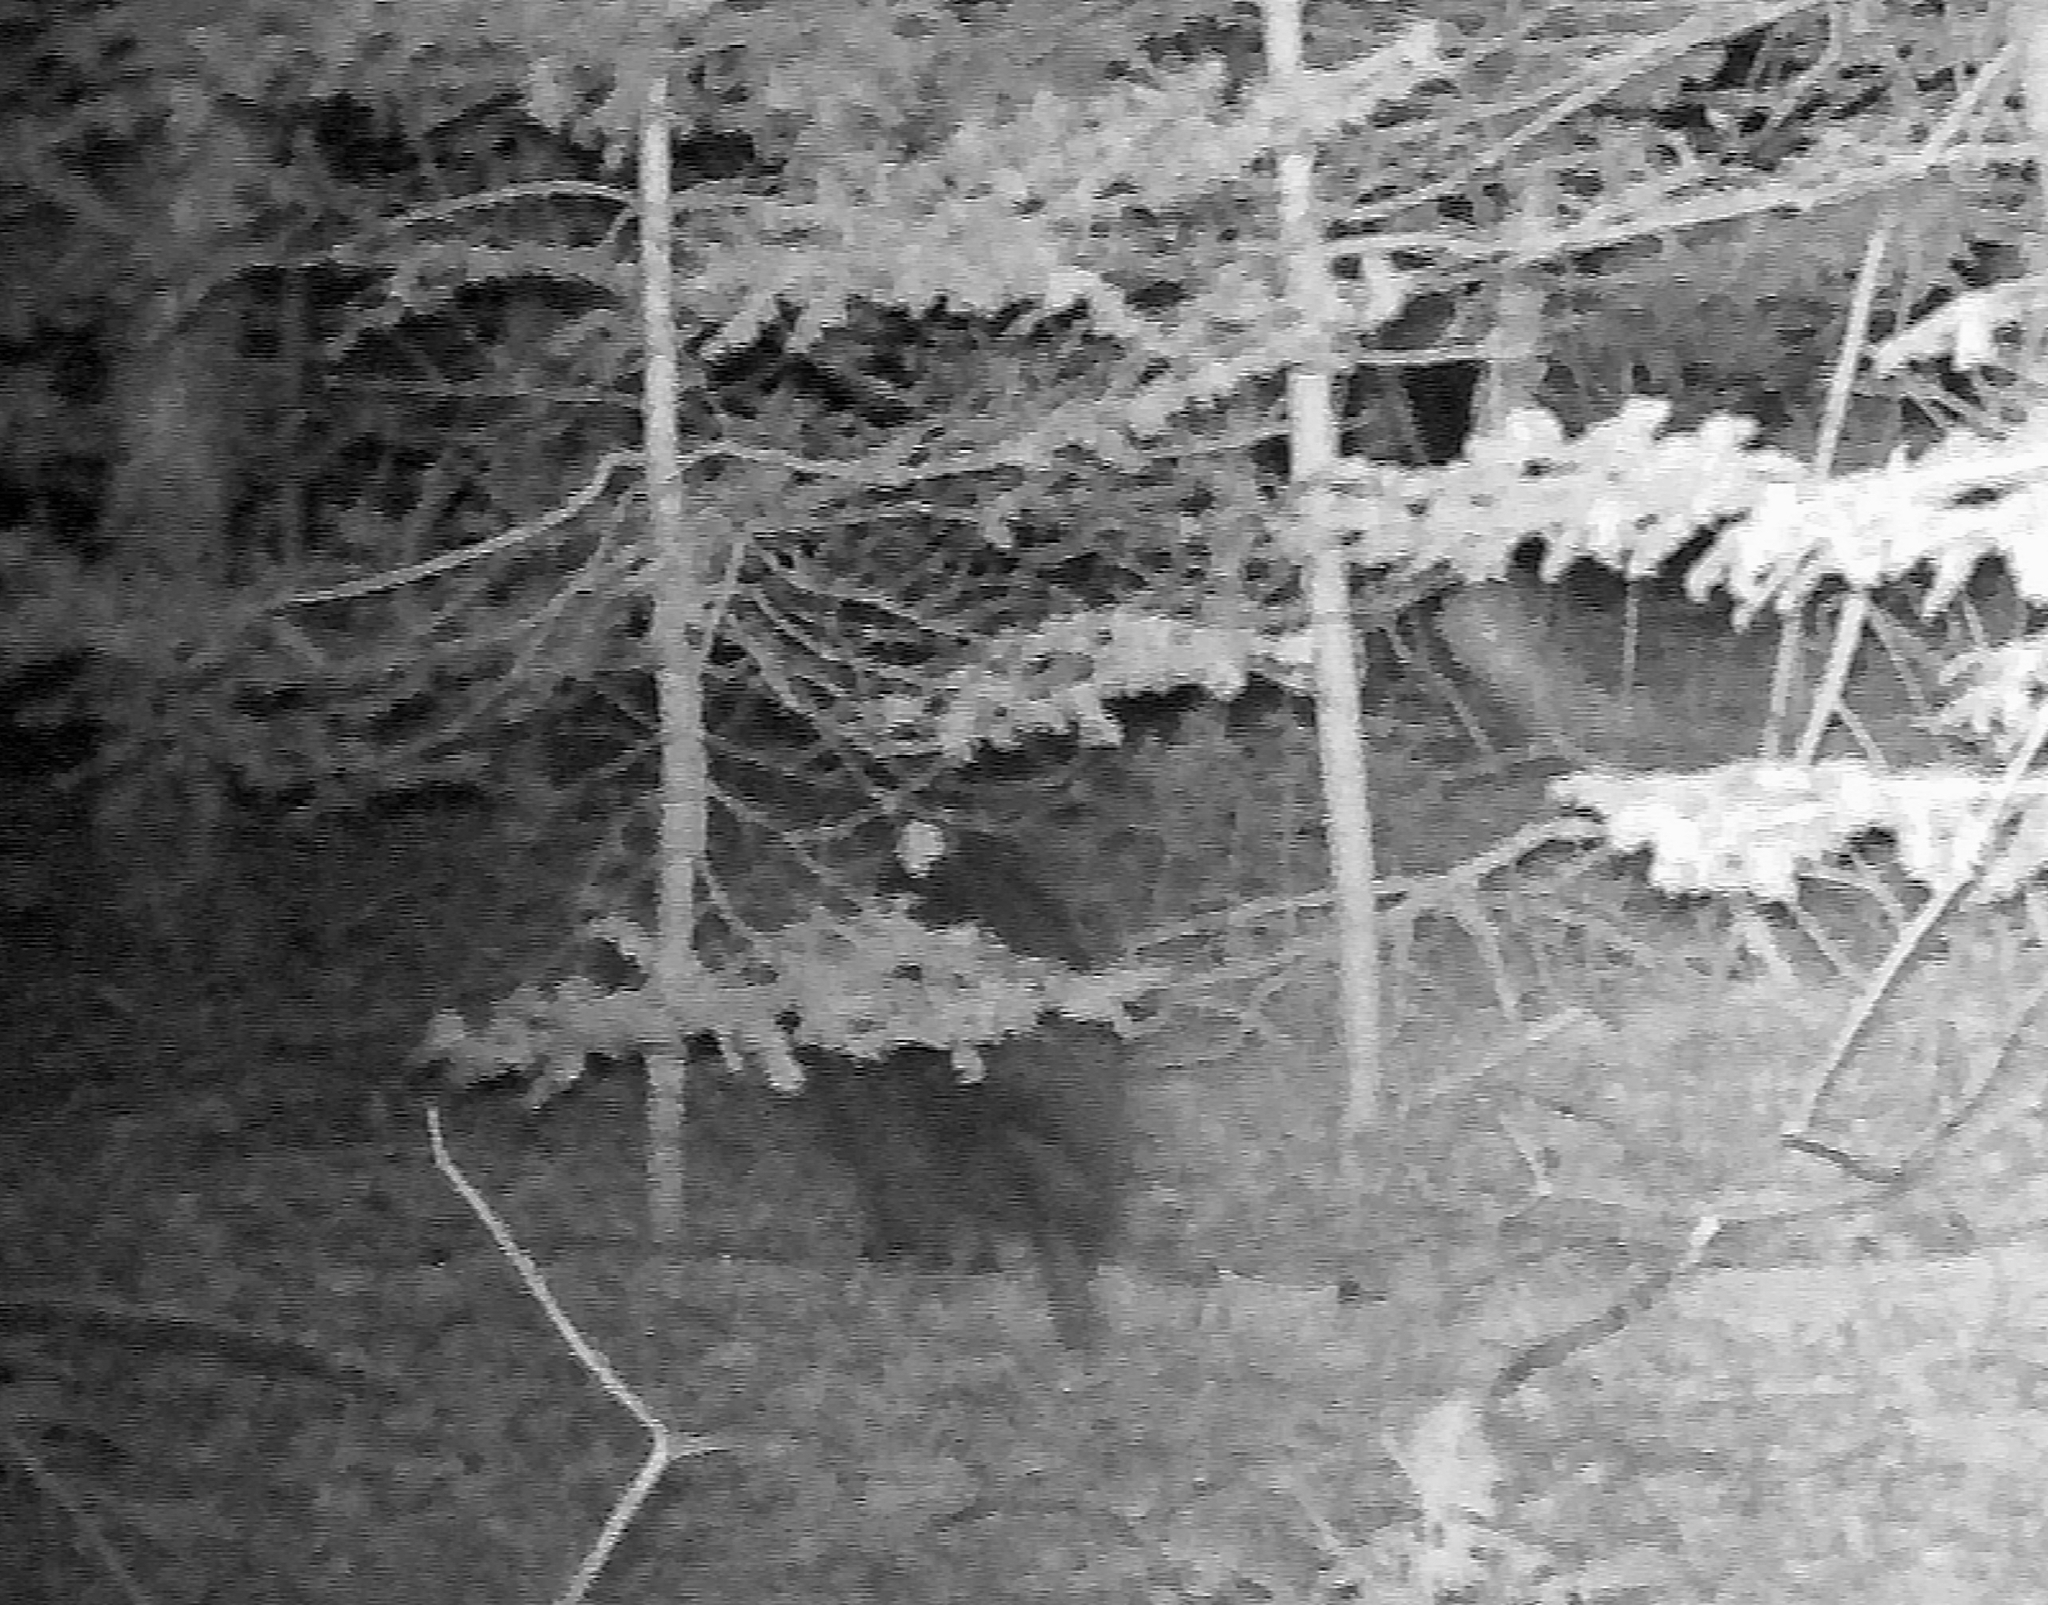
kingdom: Animalia
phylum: Chordata
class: Mammalia
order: Carnivora
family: Procyonidae
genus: Procyon
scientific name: Procyon lotor
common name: Raccoon
